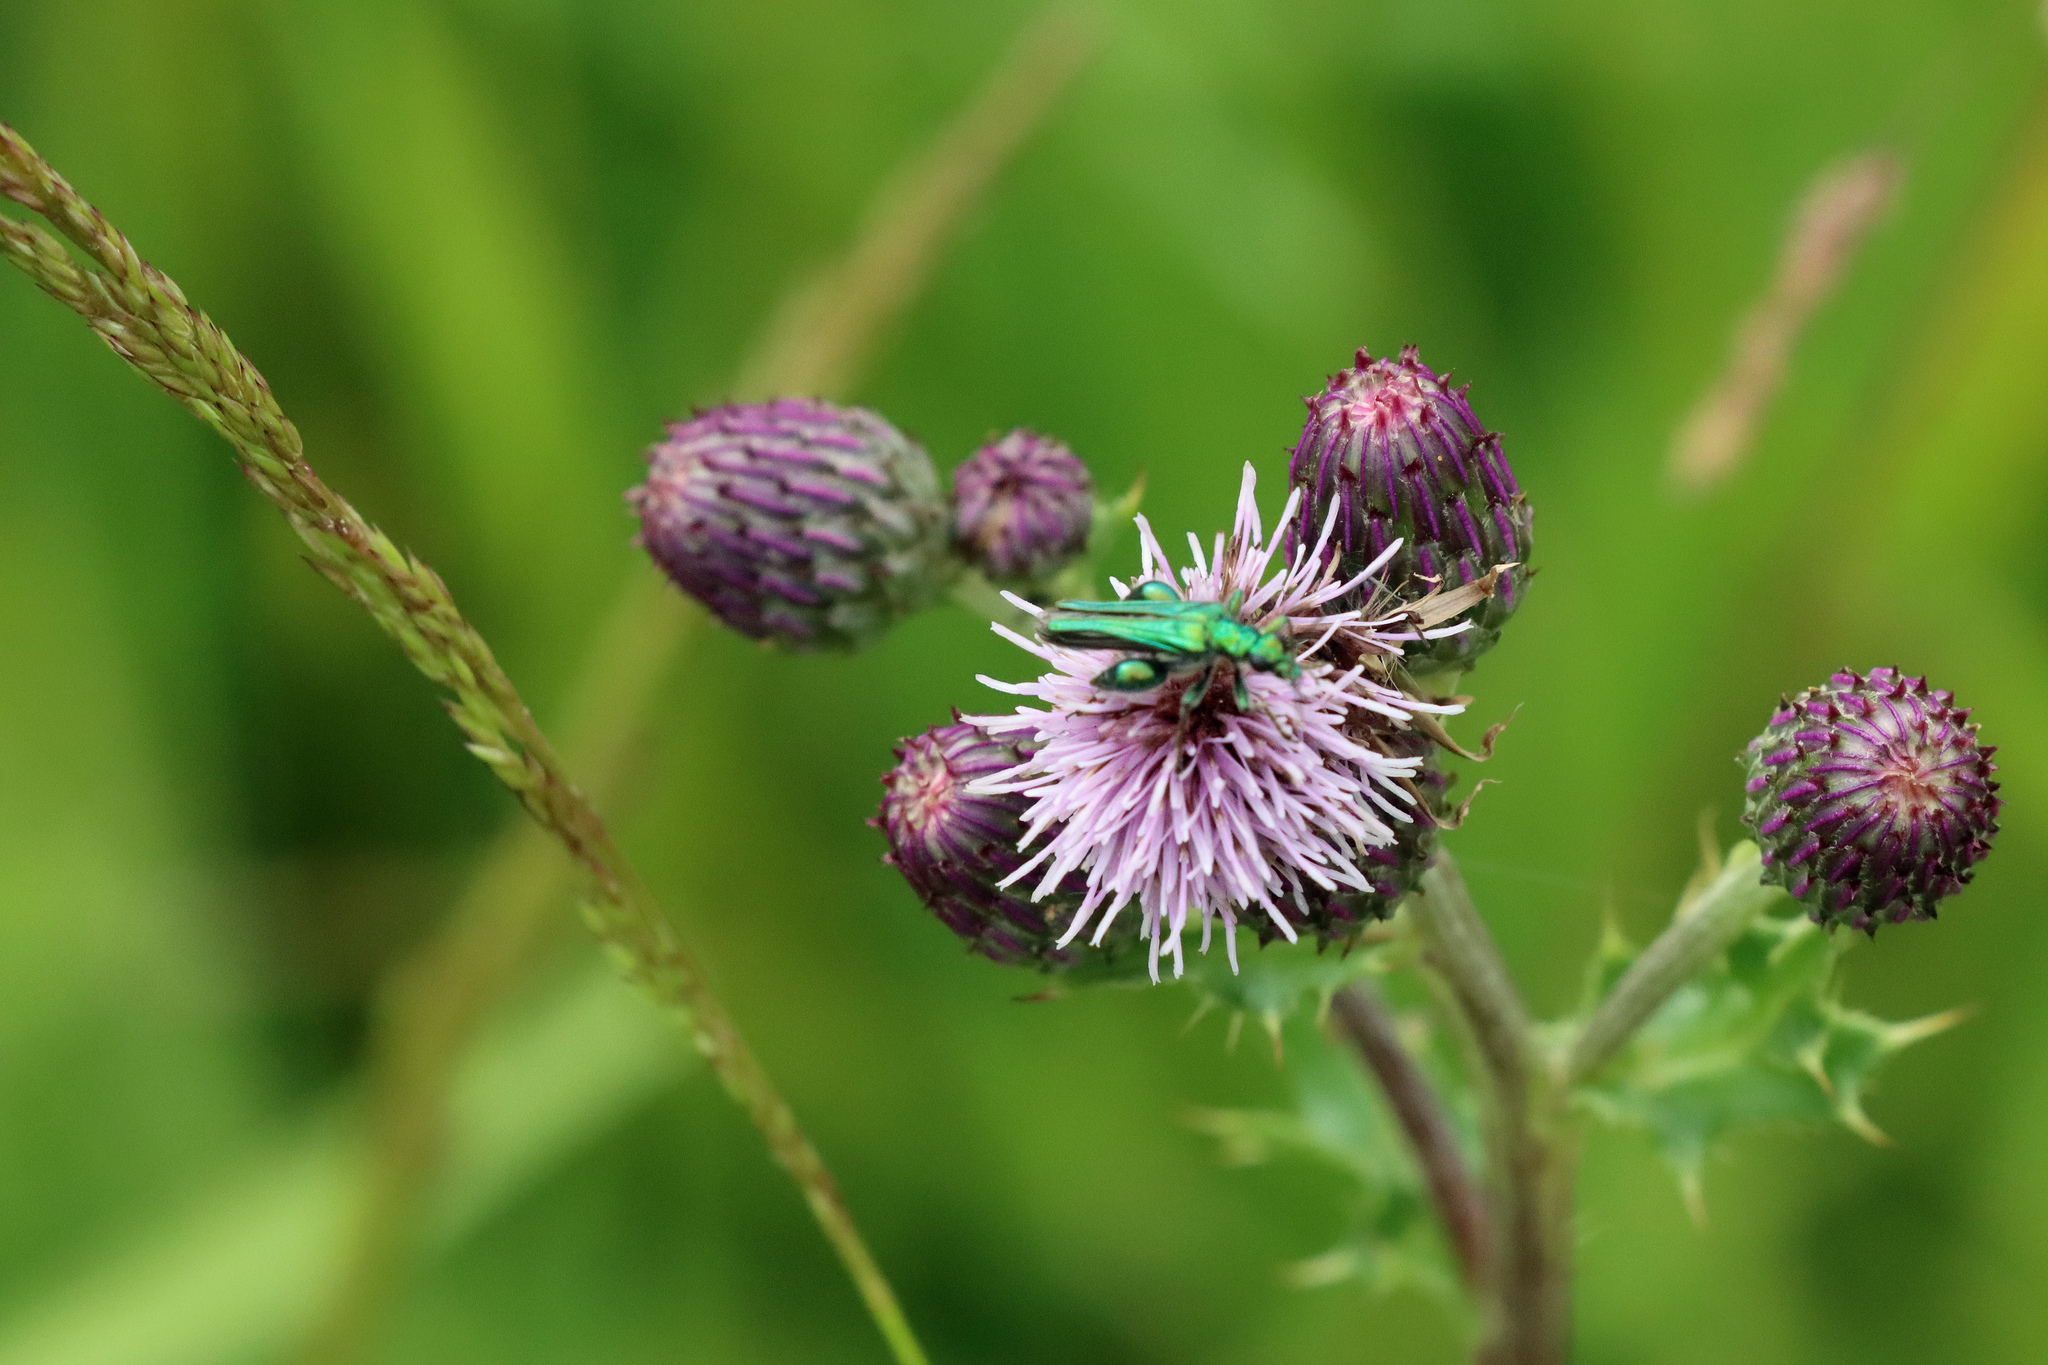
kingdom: Animalia
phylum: Arthropoda
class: Insecta
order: Coleoptera
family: Oedemeridae
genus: Oedemera
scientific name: Oedemera nobilis
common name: Swollen-thighed beetle
